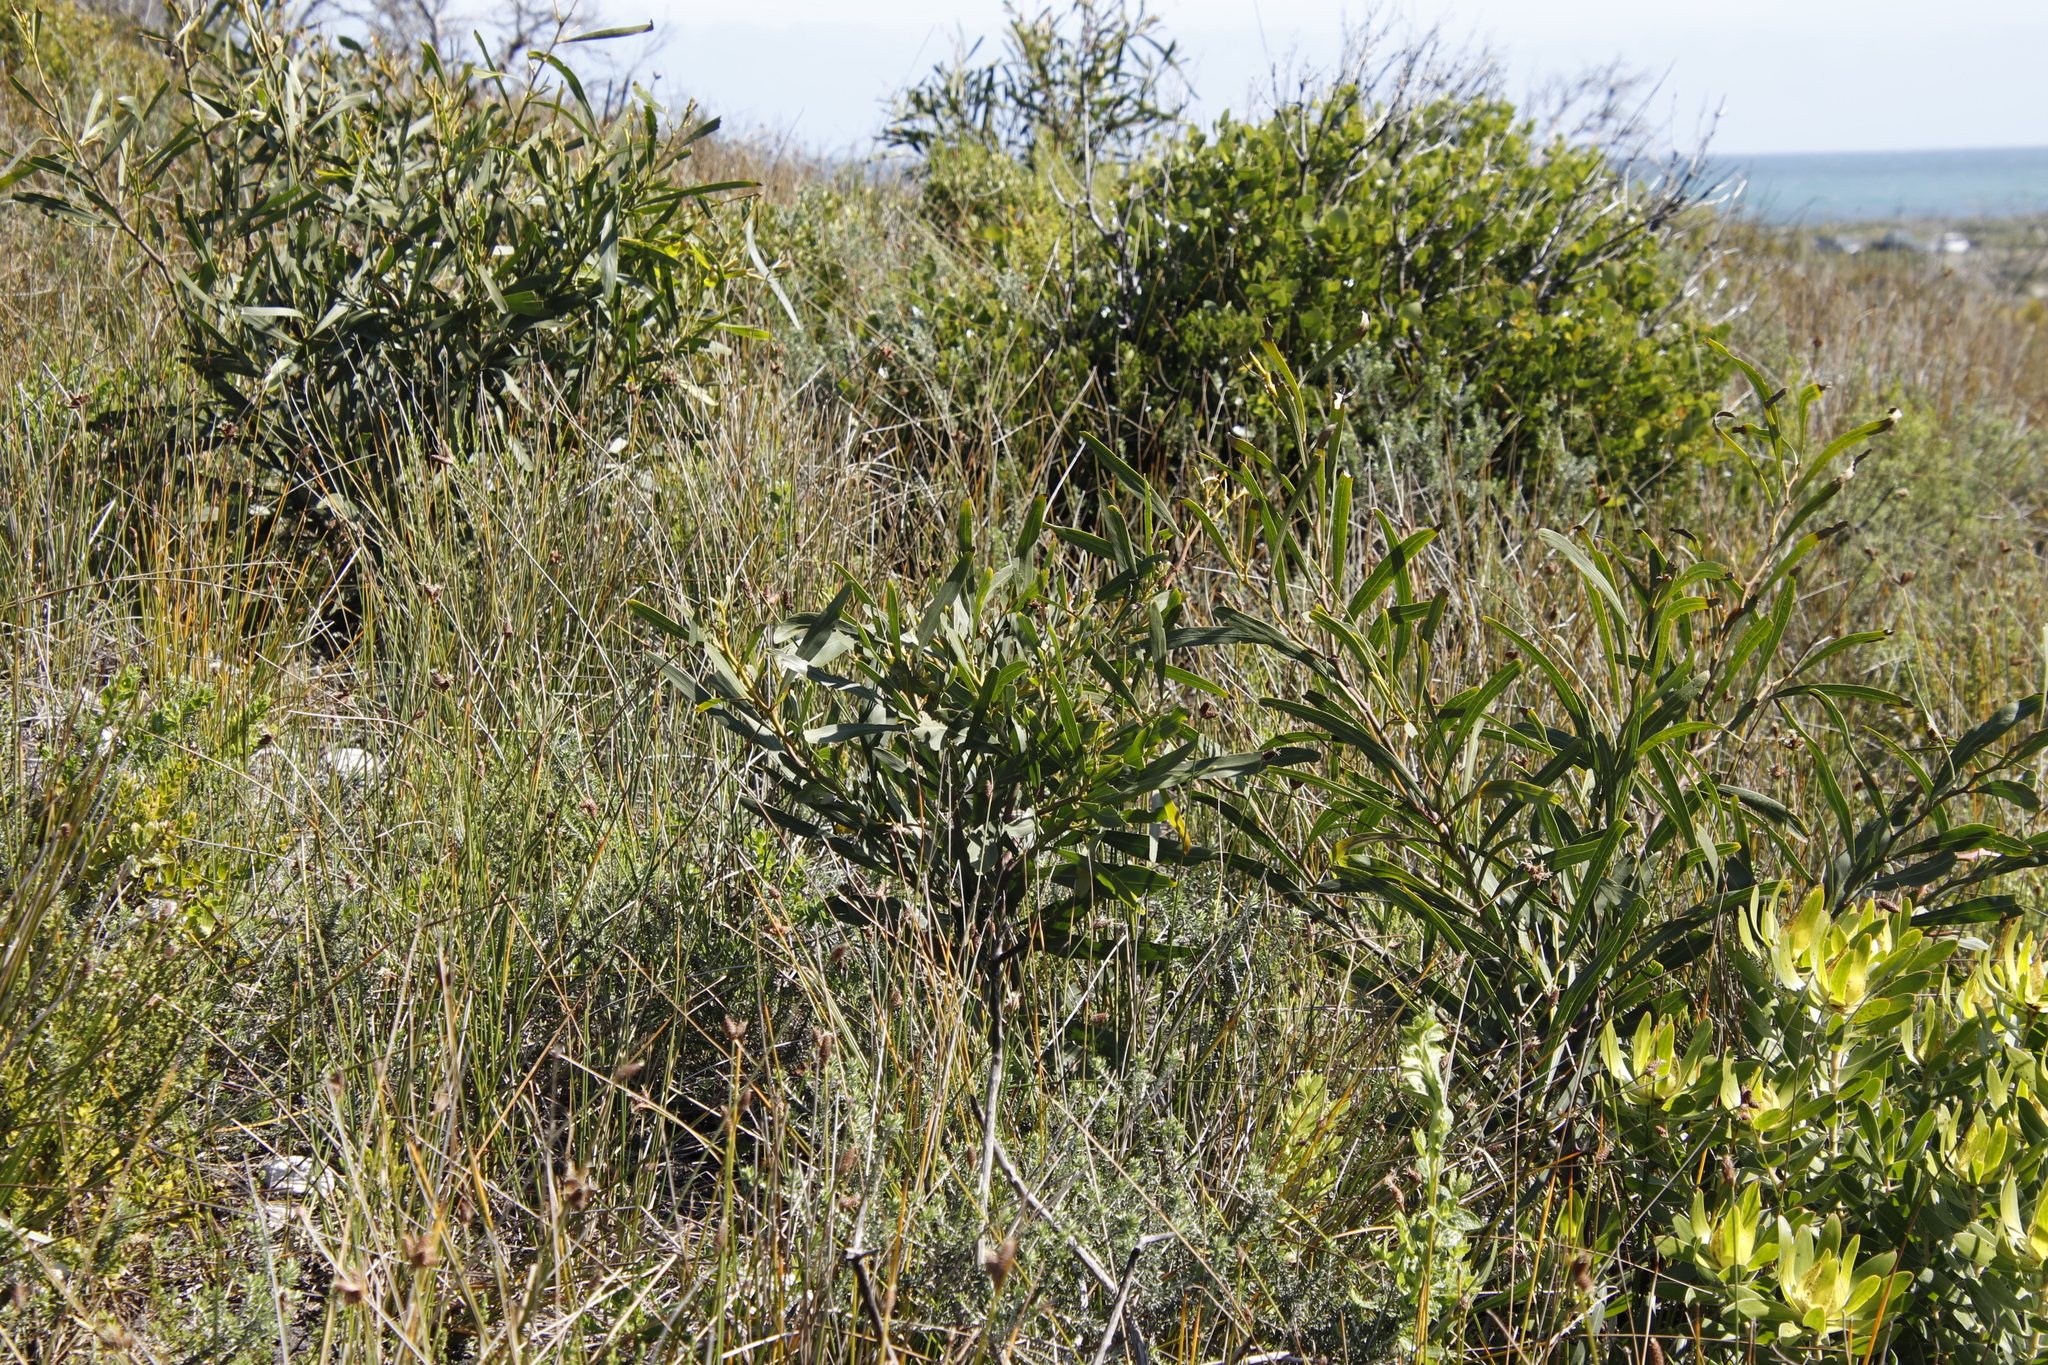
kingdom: Plantae
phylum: Tracheophyta
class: Magnoliopsida
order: Fabales
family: Fabaceae
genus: Acacia
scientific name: Acacia saligna
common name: Orange wattle
